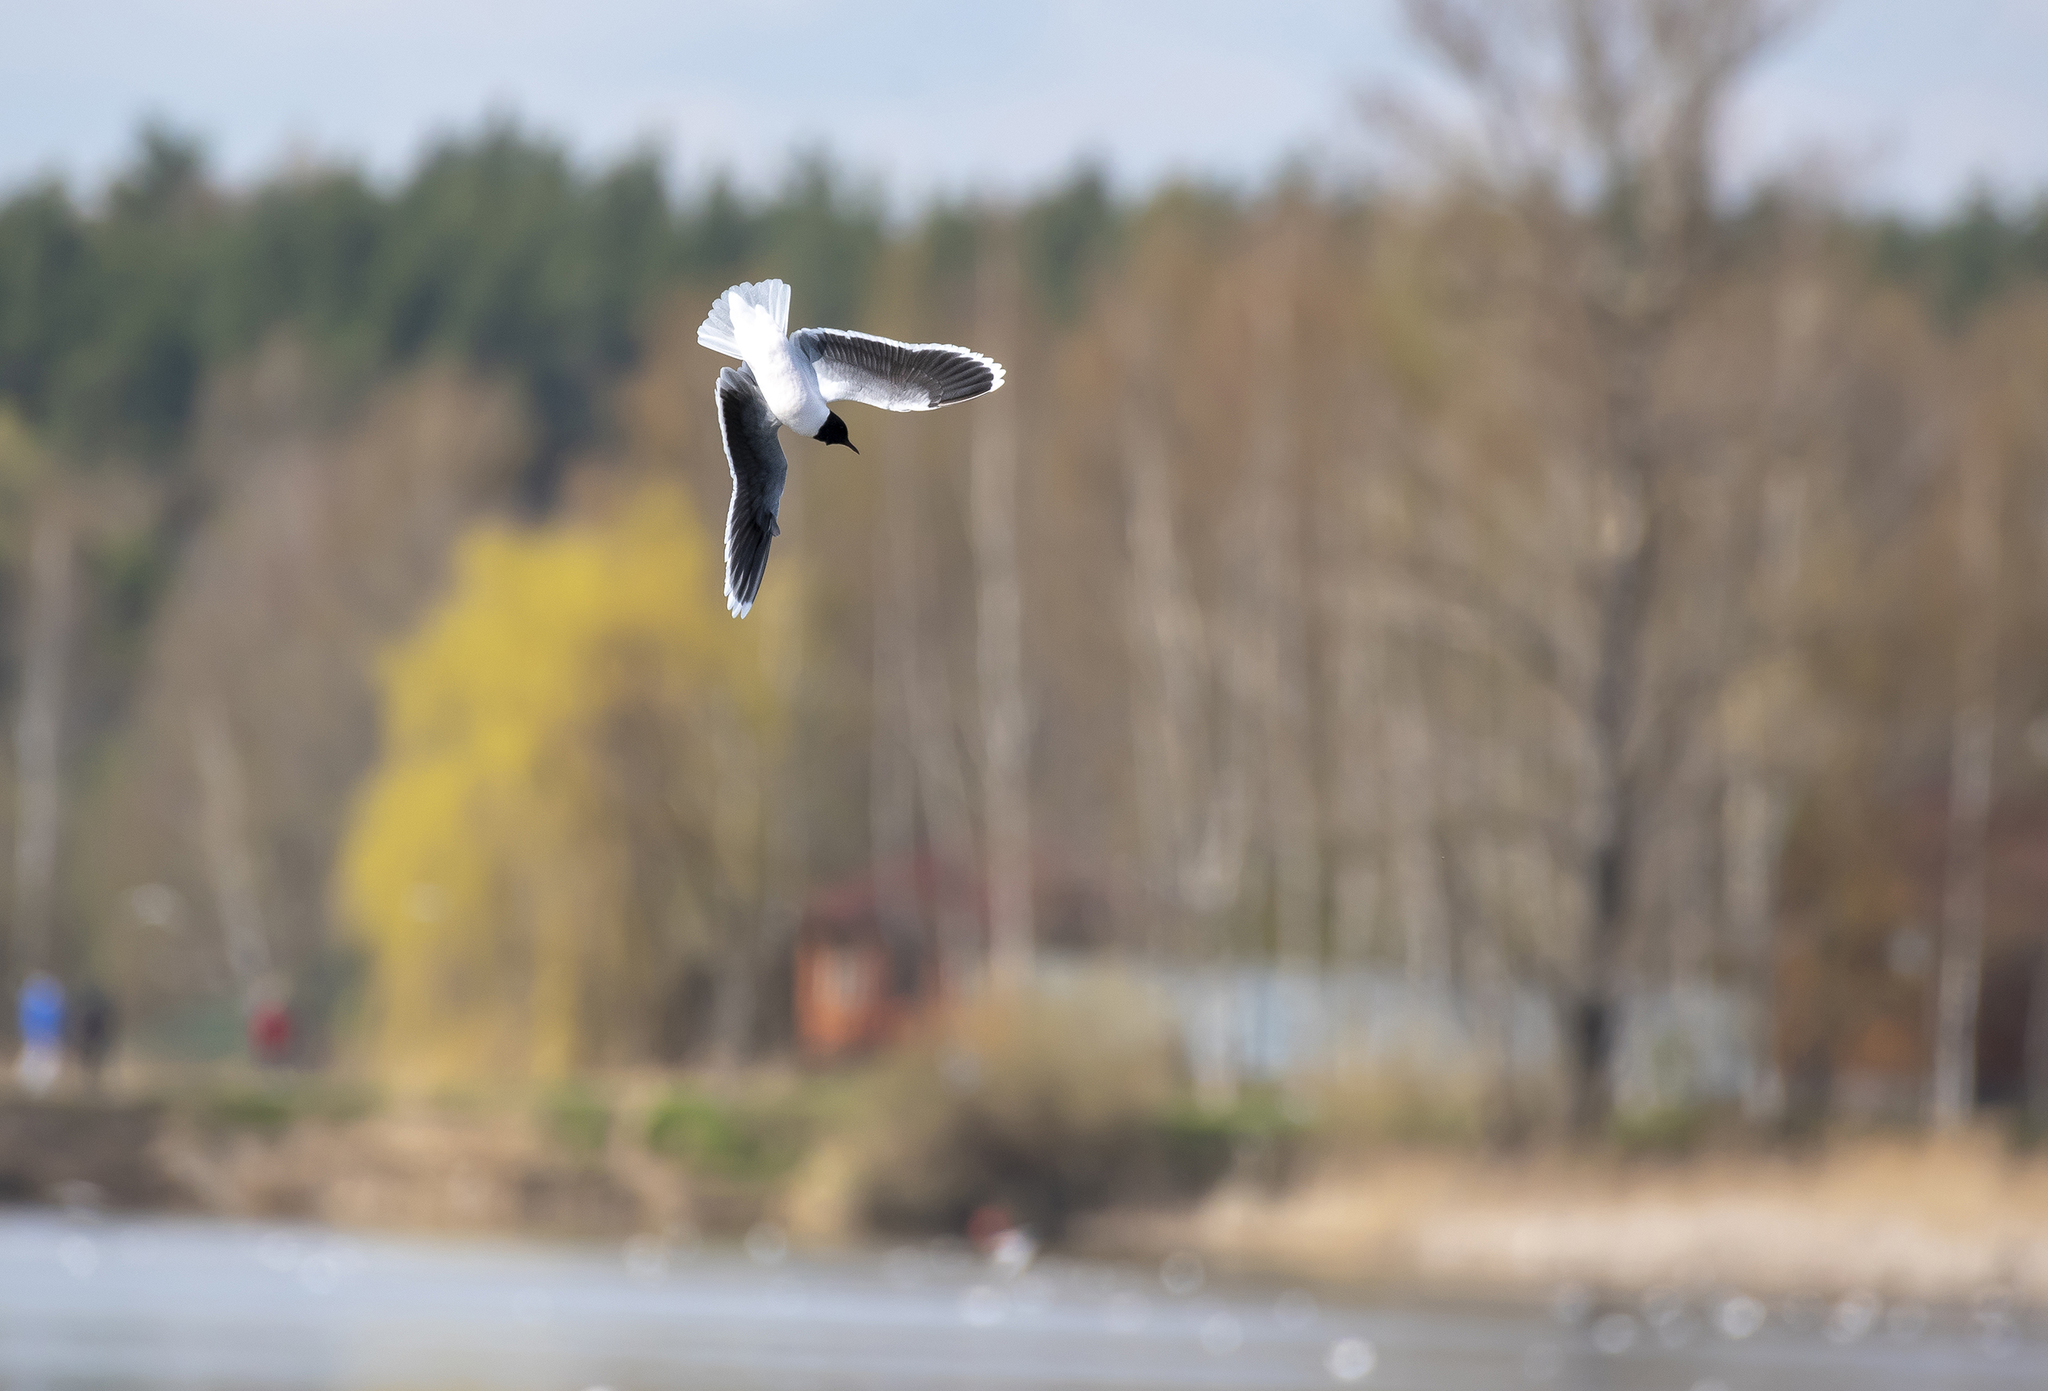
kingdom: Animalia
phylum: Chordata
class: Aves
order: Charadriiformes
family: Laridae
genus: Hydrocoloeus
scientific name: Hydrocoloeus minutus
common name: Little gull
